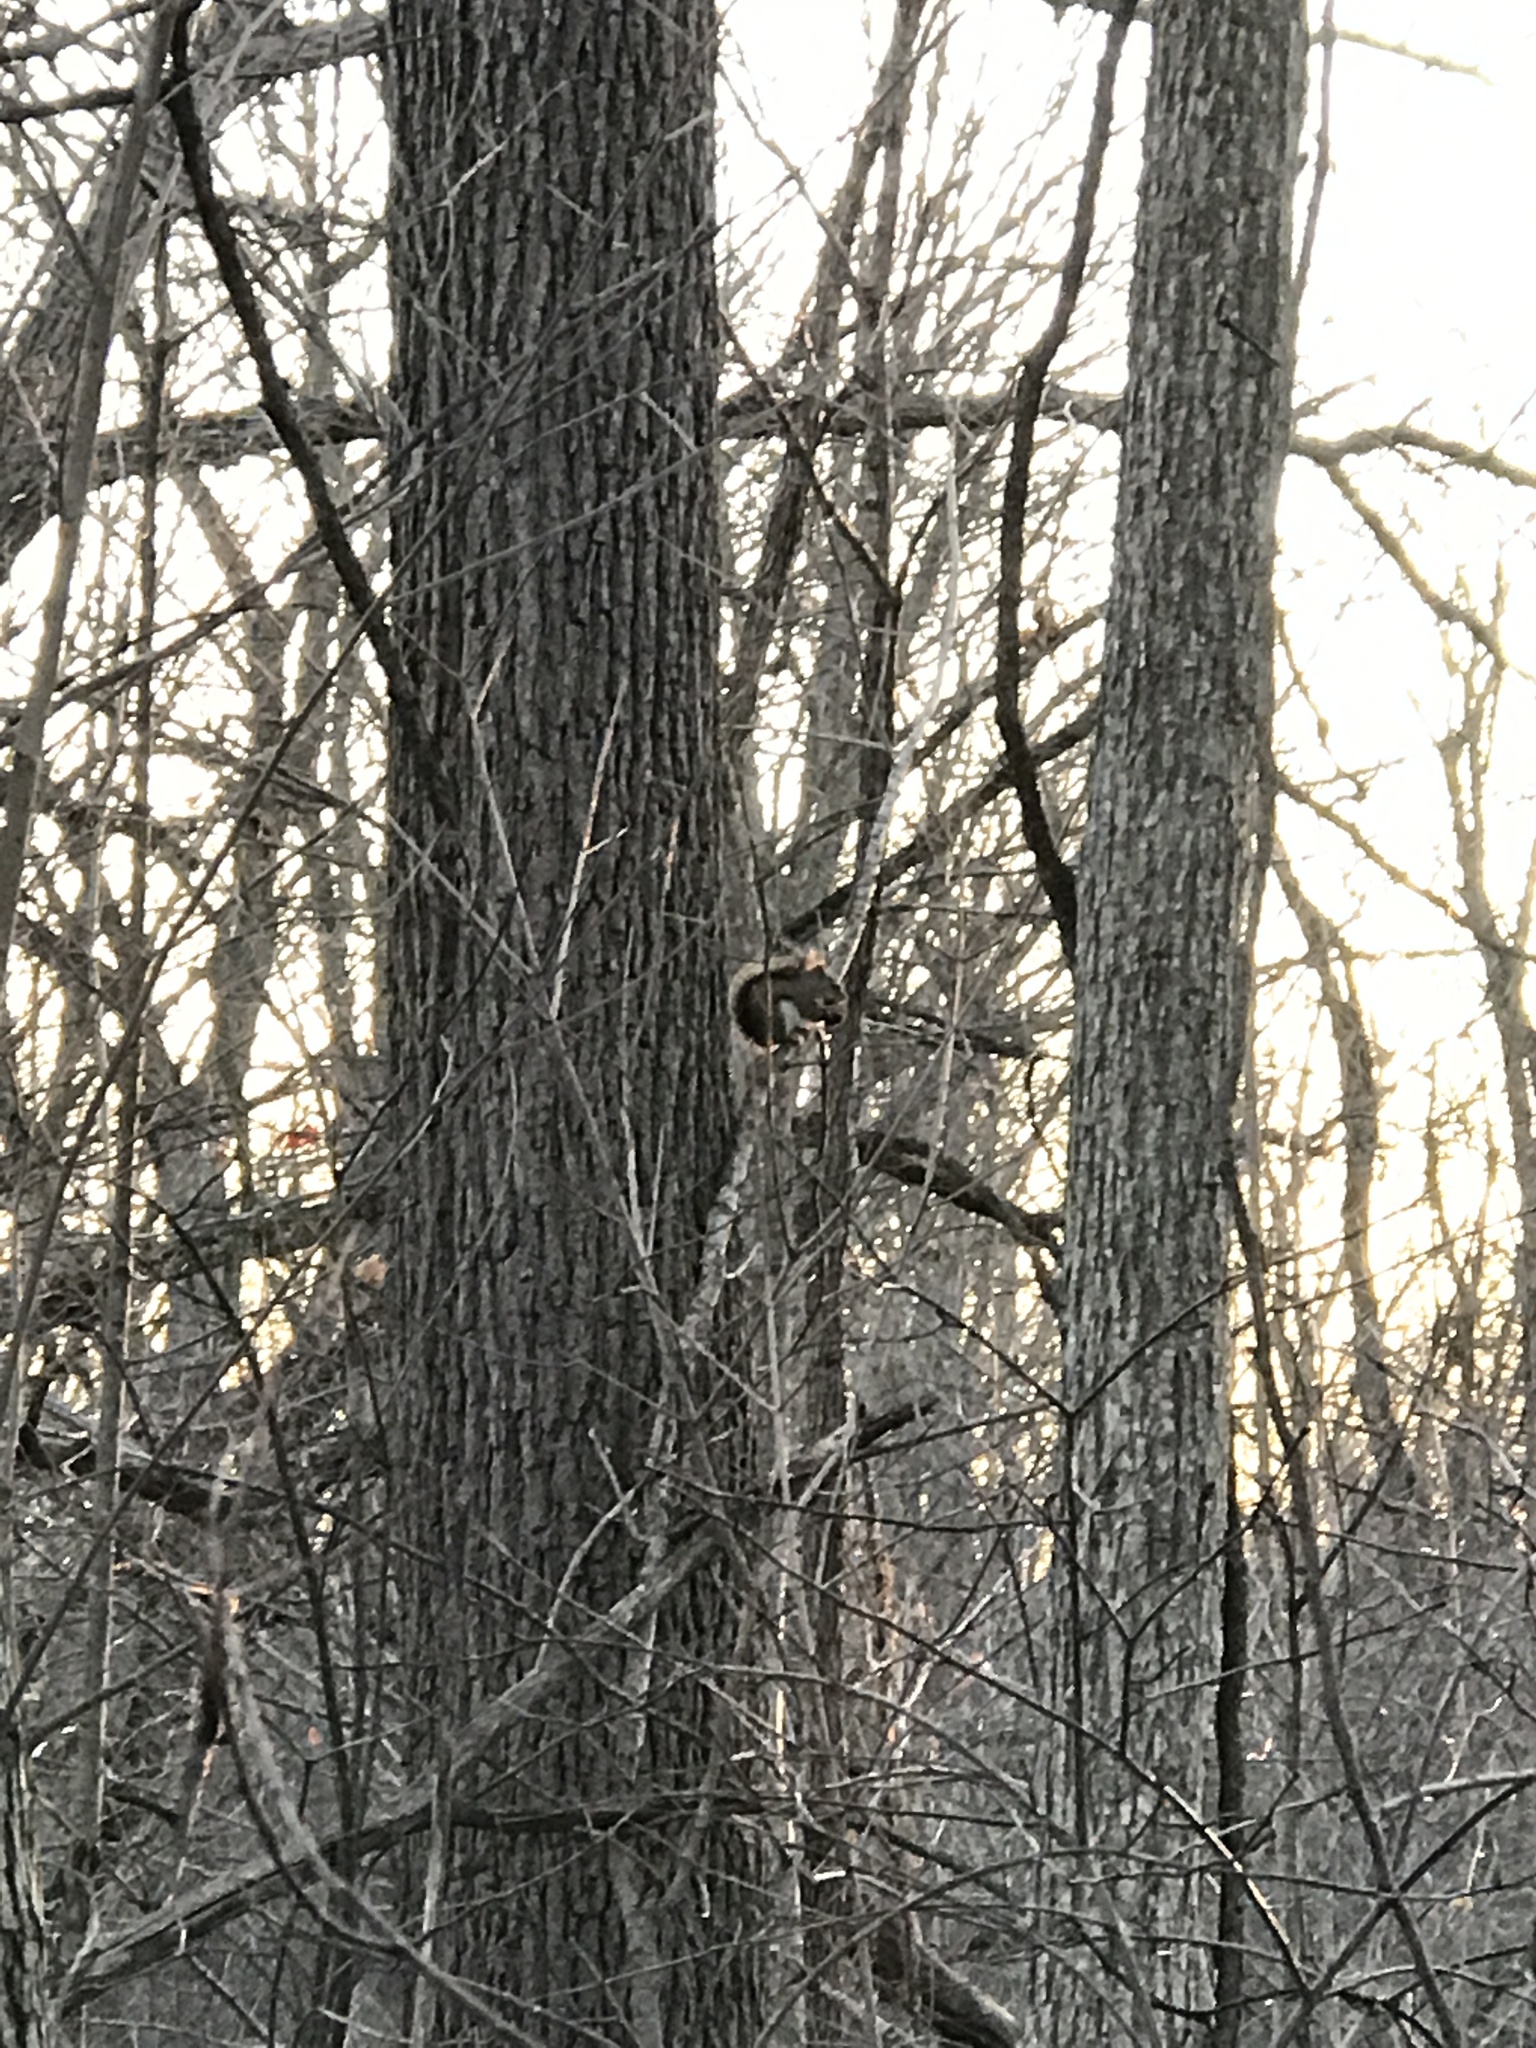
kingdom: Animalia
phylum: Chordata
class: Mammalia
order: Rodentia
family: Sciuridae
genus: Tamiasciurus
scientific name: Tamiasciurus hudsonicus
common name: Red squirrel
